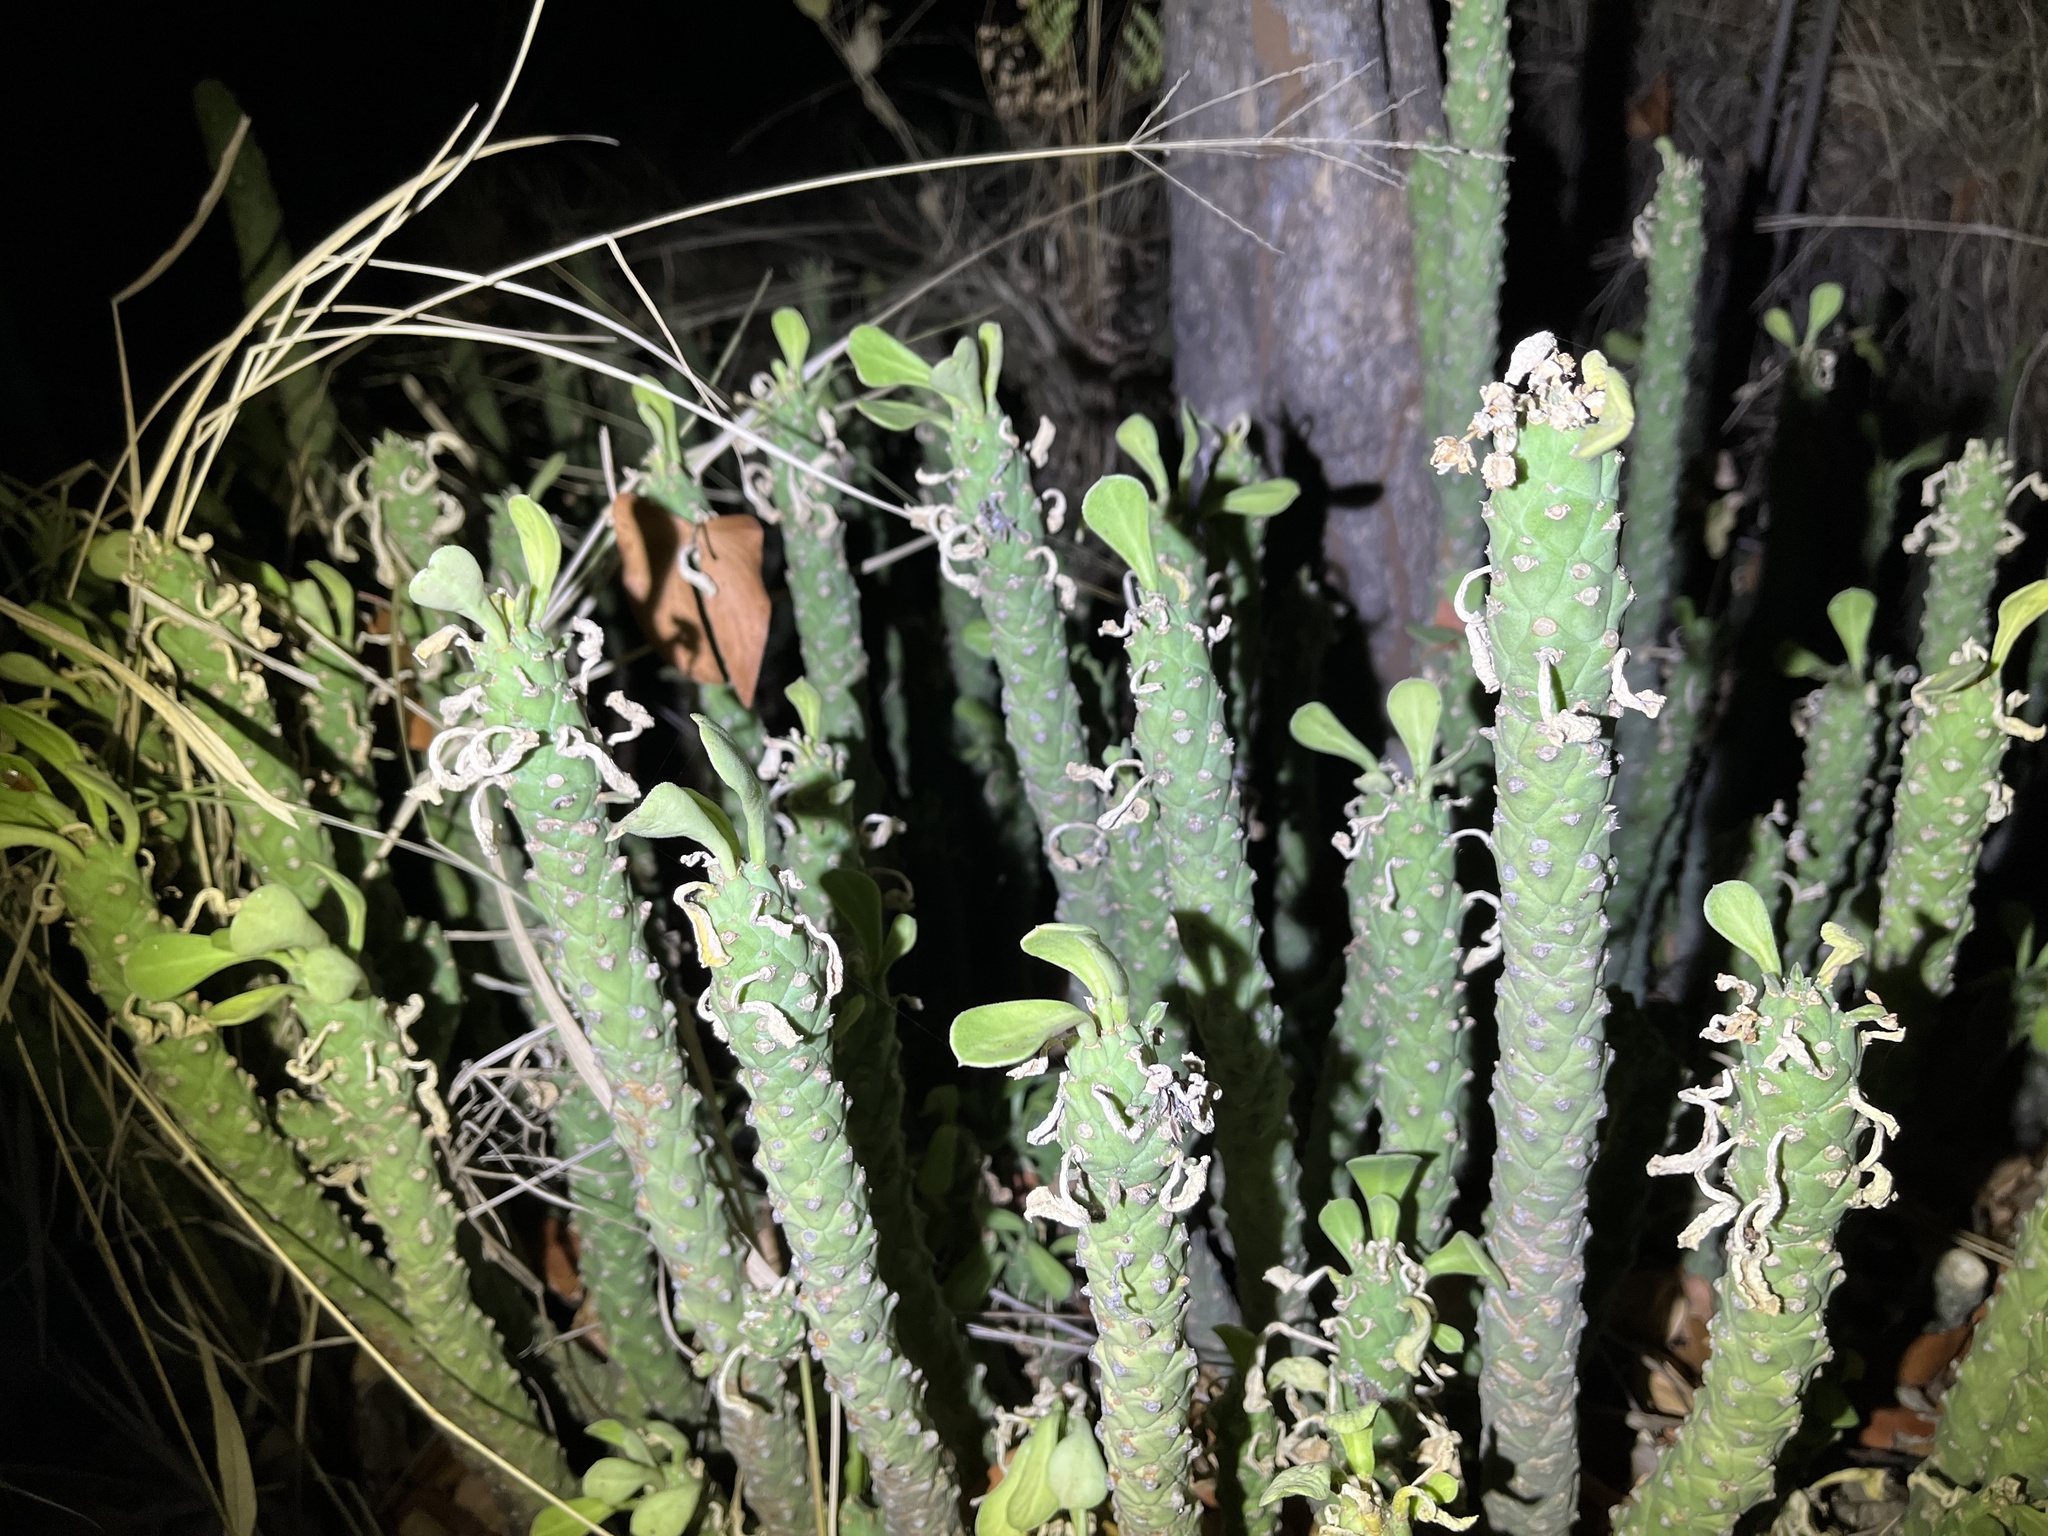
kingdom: Plantae
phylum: Tracheophyta
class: Magnoliopsida
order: Malpighiales
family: Euphorbiaceae
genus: Euphorbia
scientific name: Euphorbia lugardiae
